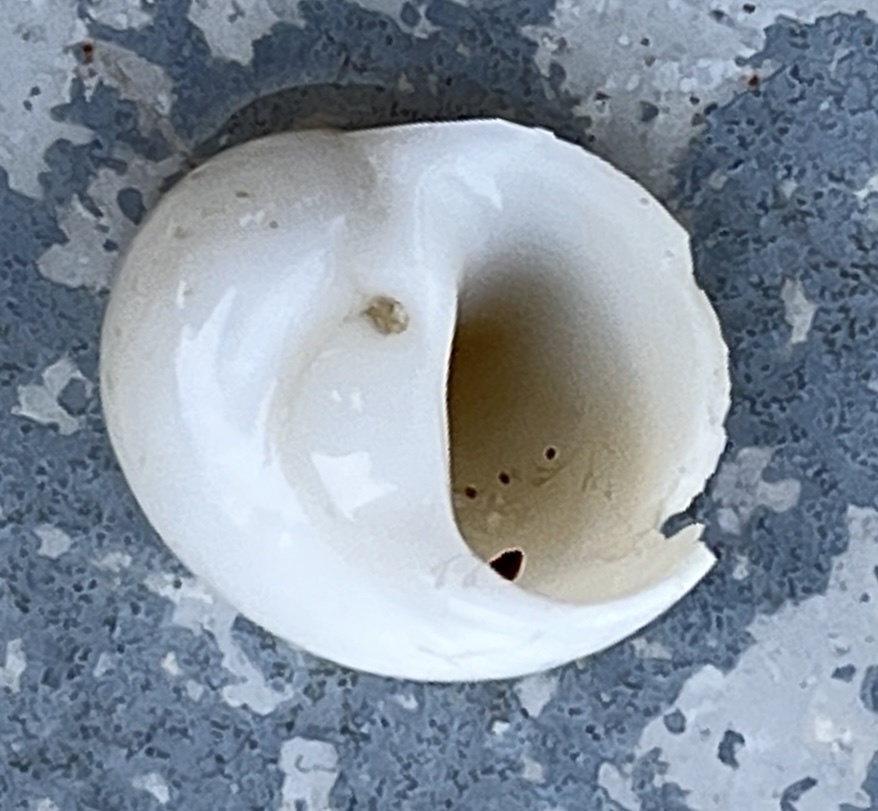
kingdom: Animalia
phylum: Mollusca
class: Gastropoda
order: Littorinimorpha
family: Naticidae
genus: Naticarius
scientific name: Naticarius canrena
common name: Colorful moonsnail
